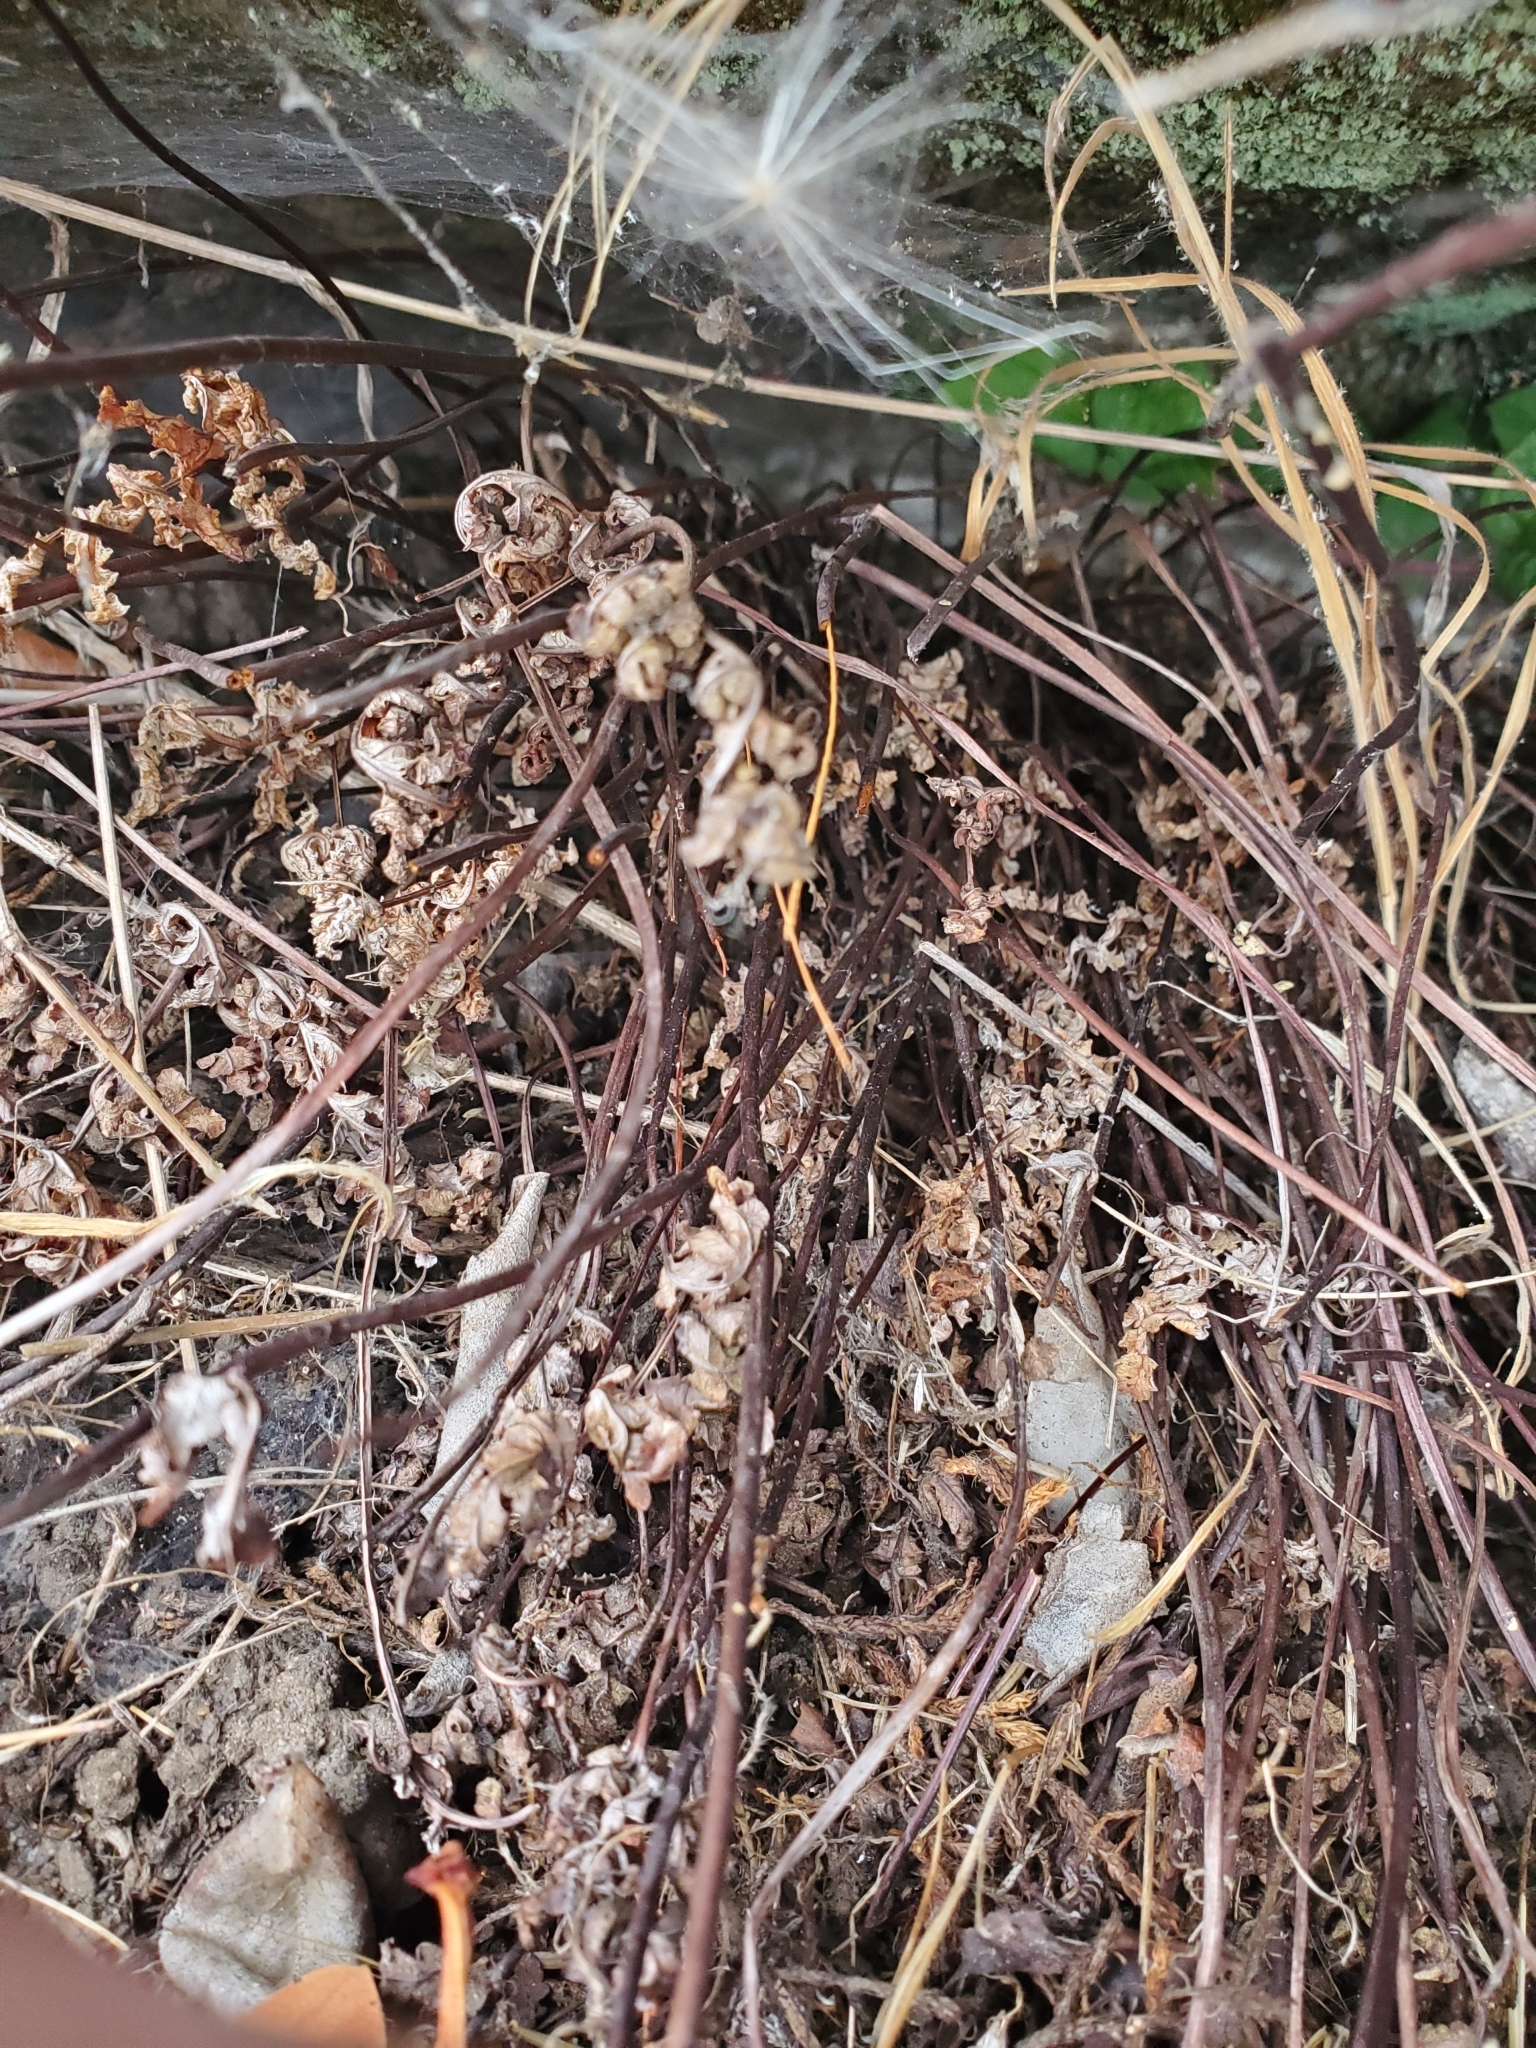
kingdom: Plantae
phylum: Tracheophyta
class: Polypodiopsida
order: Polypodiales
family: Pteridaceae
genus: Pentagramma
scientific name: Pentagramma triangularis
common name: Gold fern
